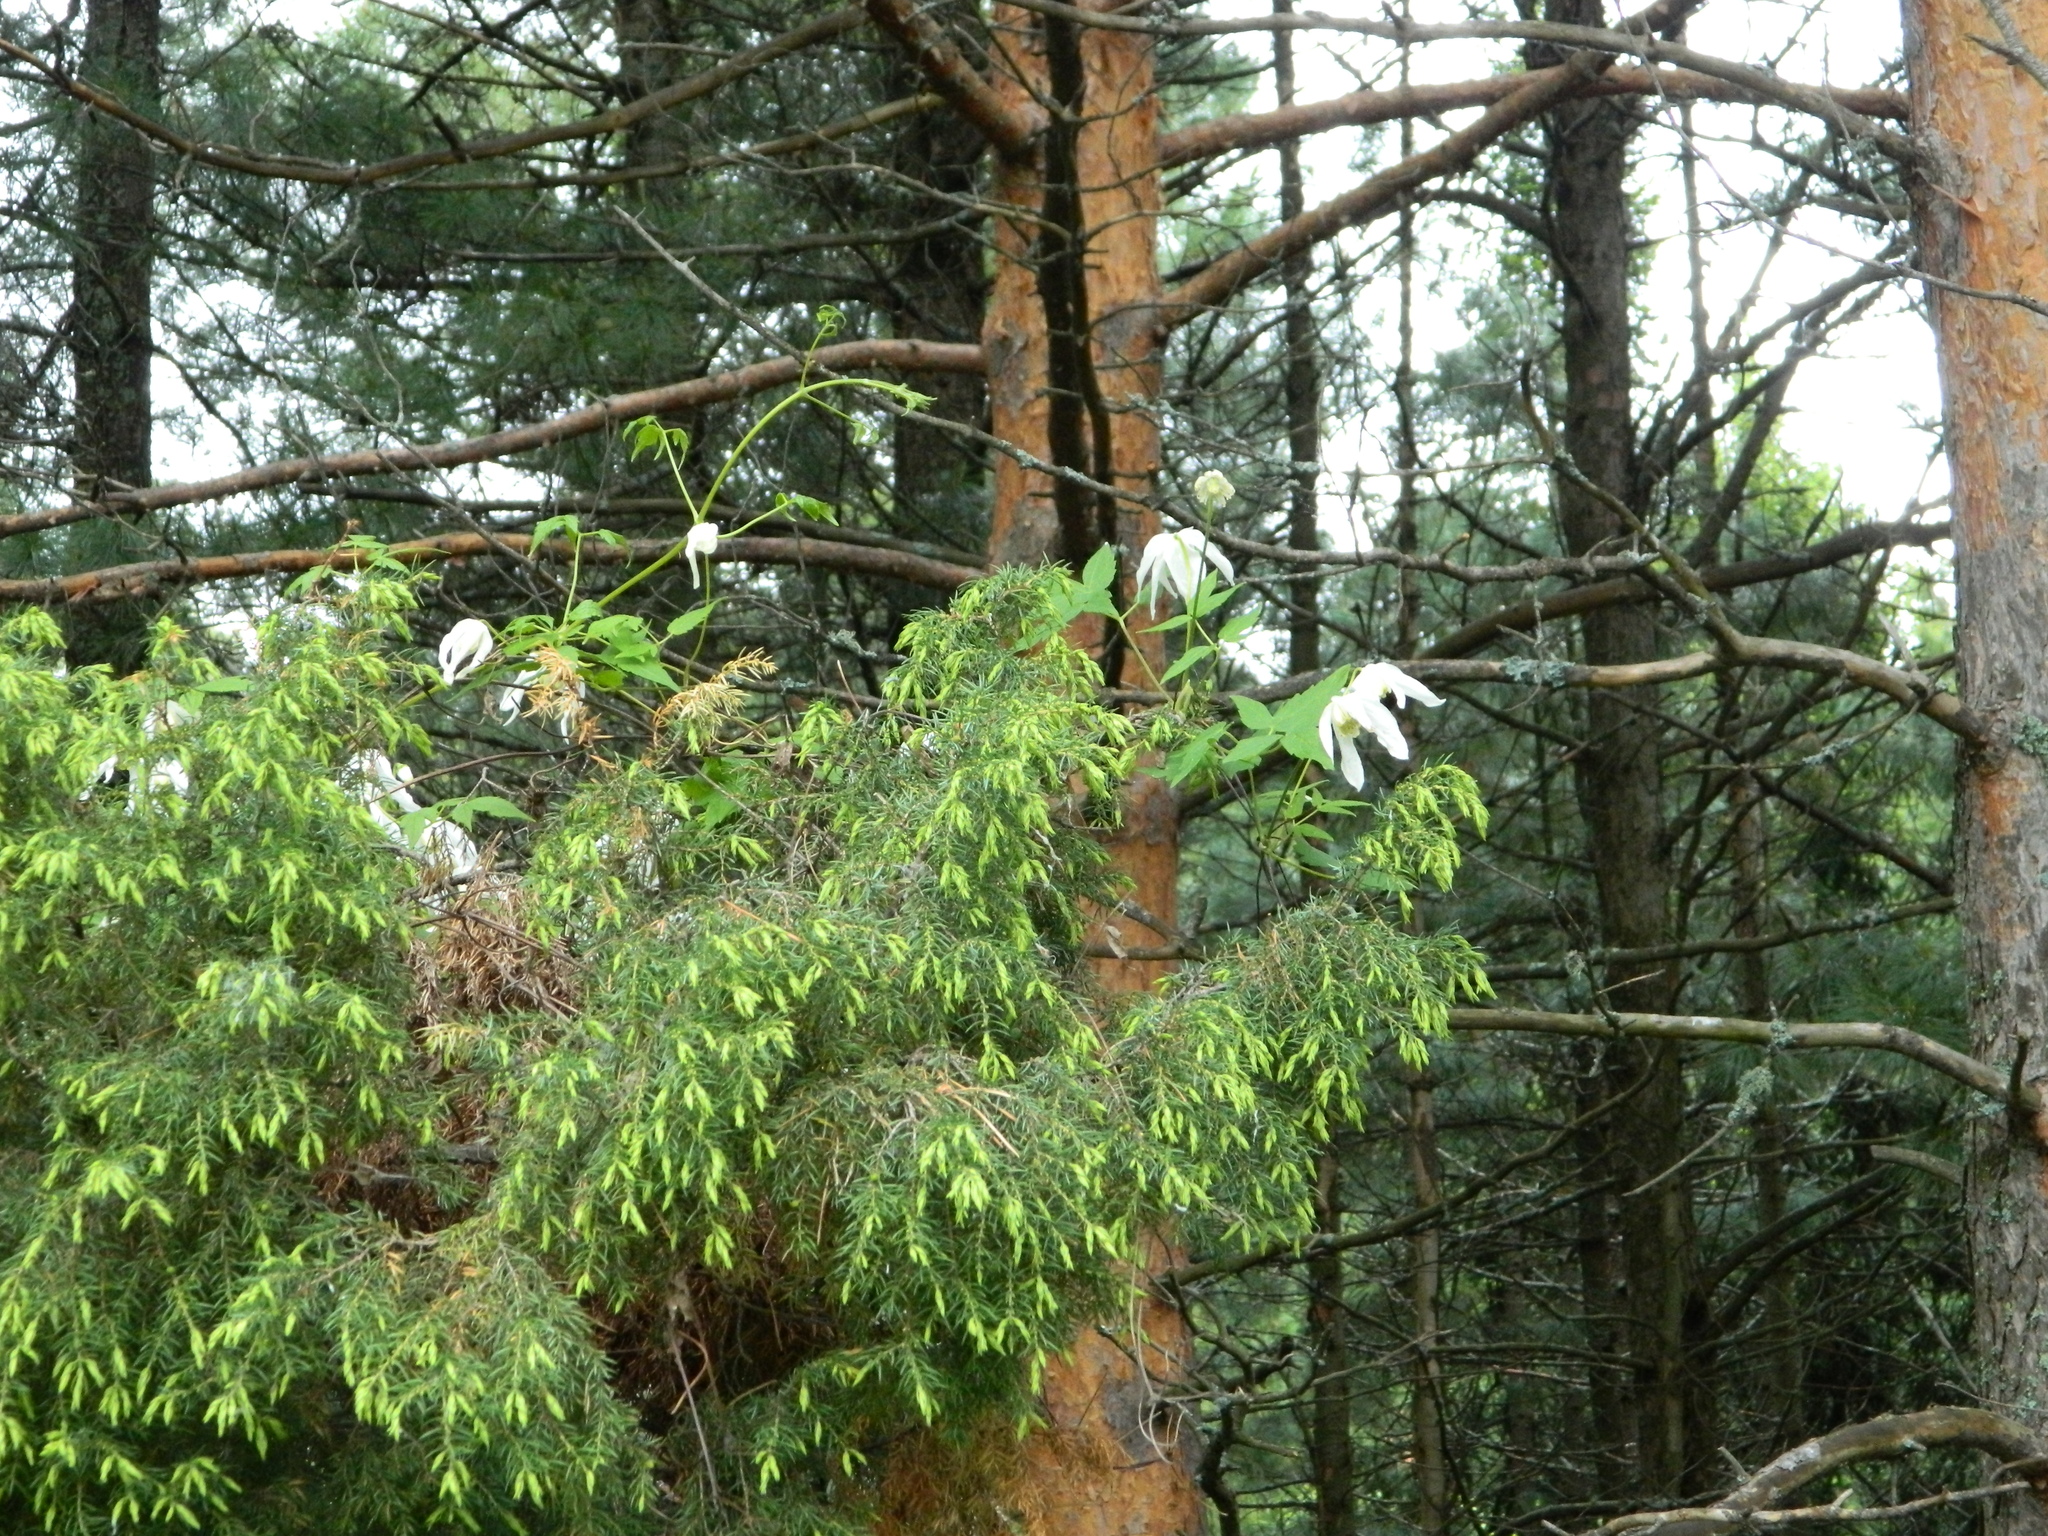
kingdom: Plantae
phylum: Tracheophyta
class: Magnoliopsida
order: Ranunculales
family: Ranunculaceae
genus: Clematis
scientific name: Clematis sibirica
